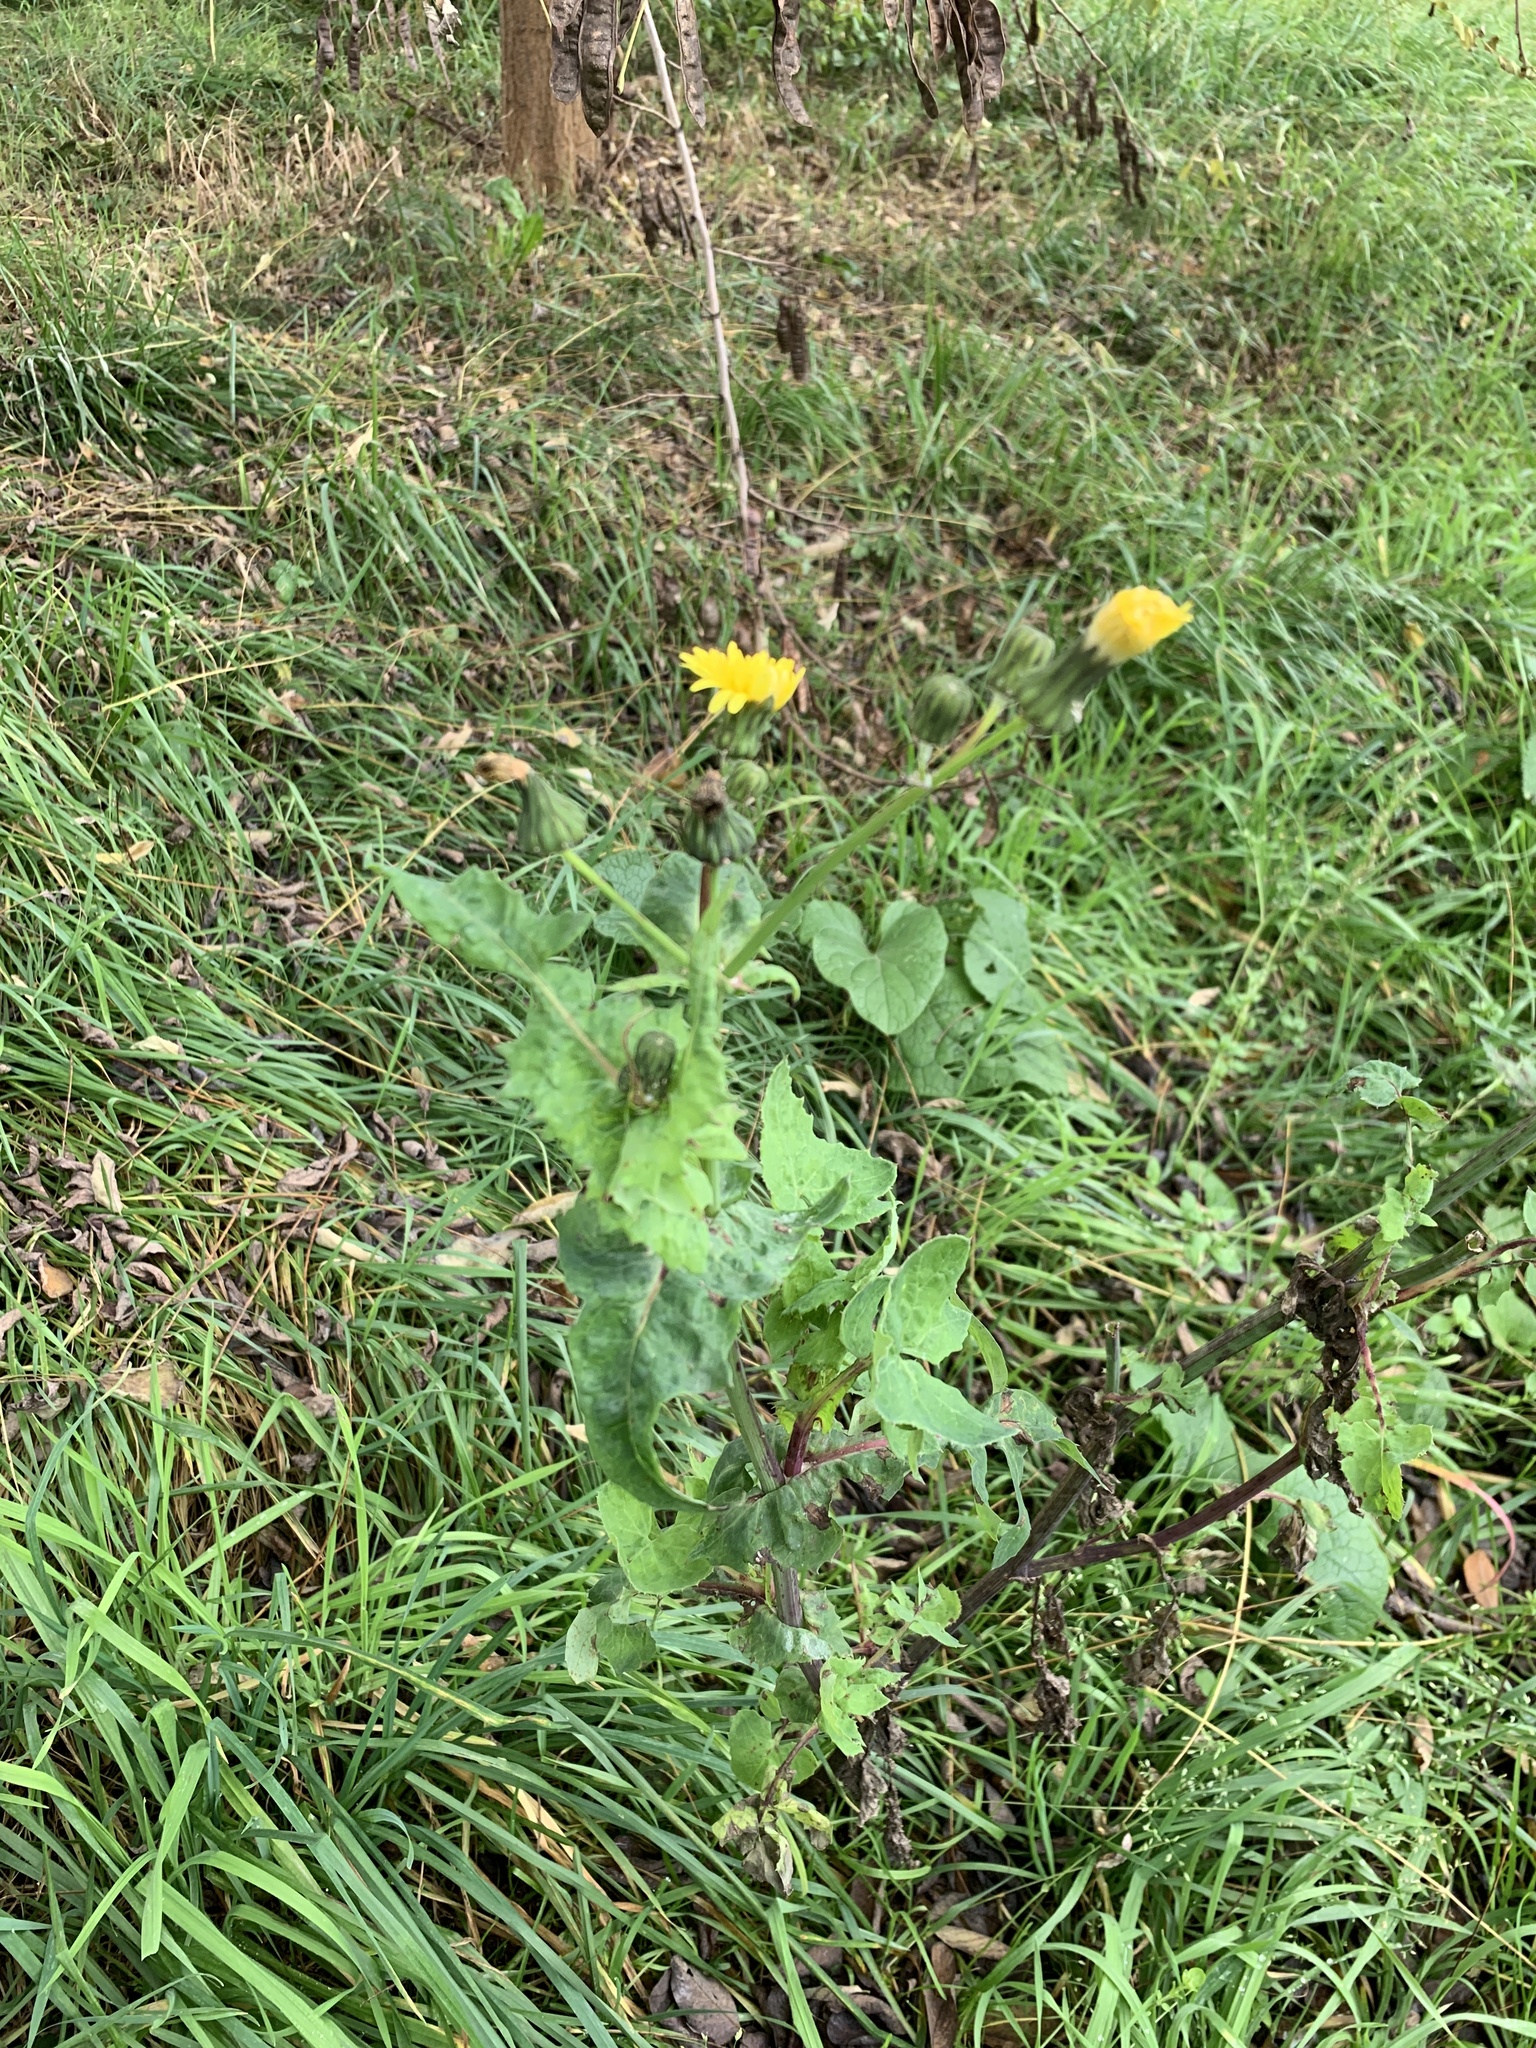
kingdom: Plantae
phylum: Tracheophyta
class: Magnoliopsida
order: Asterales
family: Asteraceae
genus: Sonchus
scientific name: Sonchus oleraceus
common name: Common sowthistle
